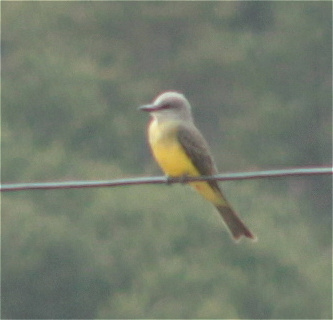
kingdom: Animalia
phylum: Chordata
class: Aves
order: Passeriformes
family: Tyrannidae
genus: Tyrannus
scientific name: Tyrannus melancholicus
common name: Tropical kingbird
